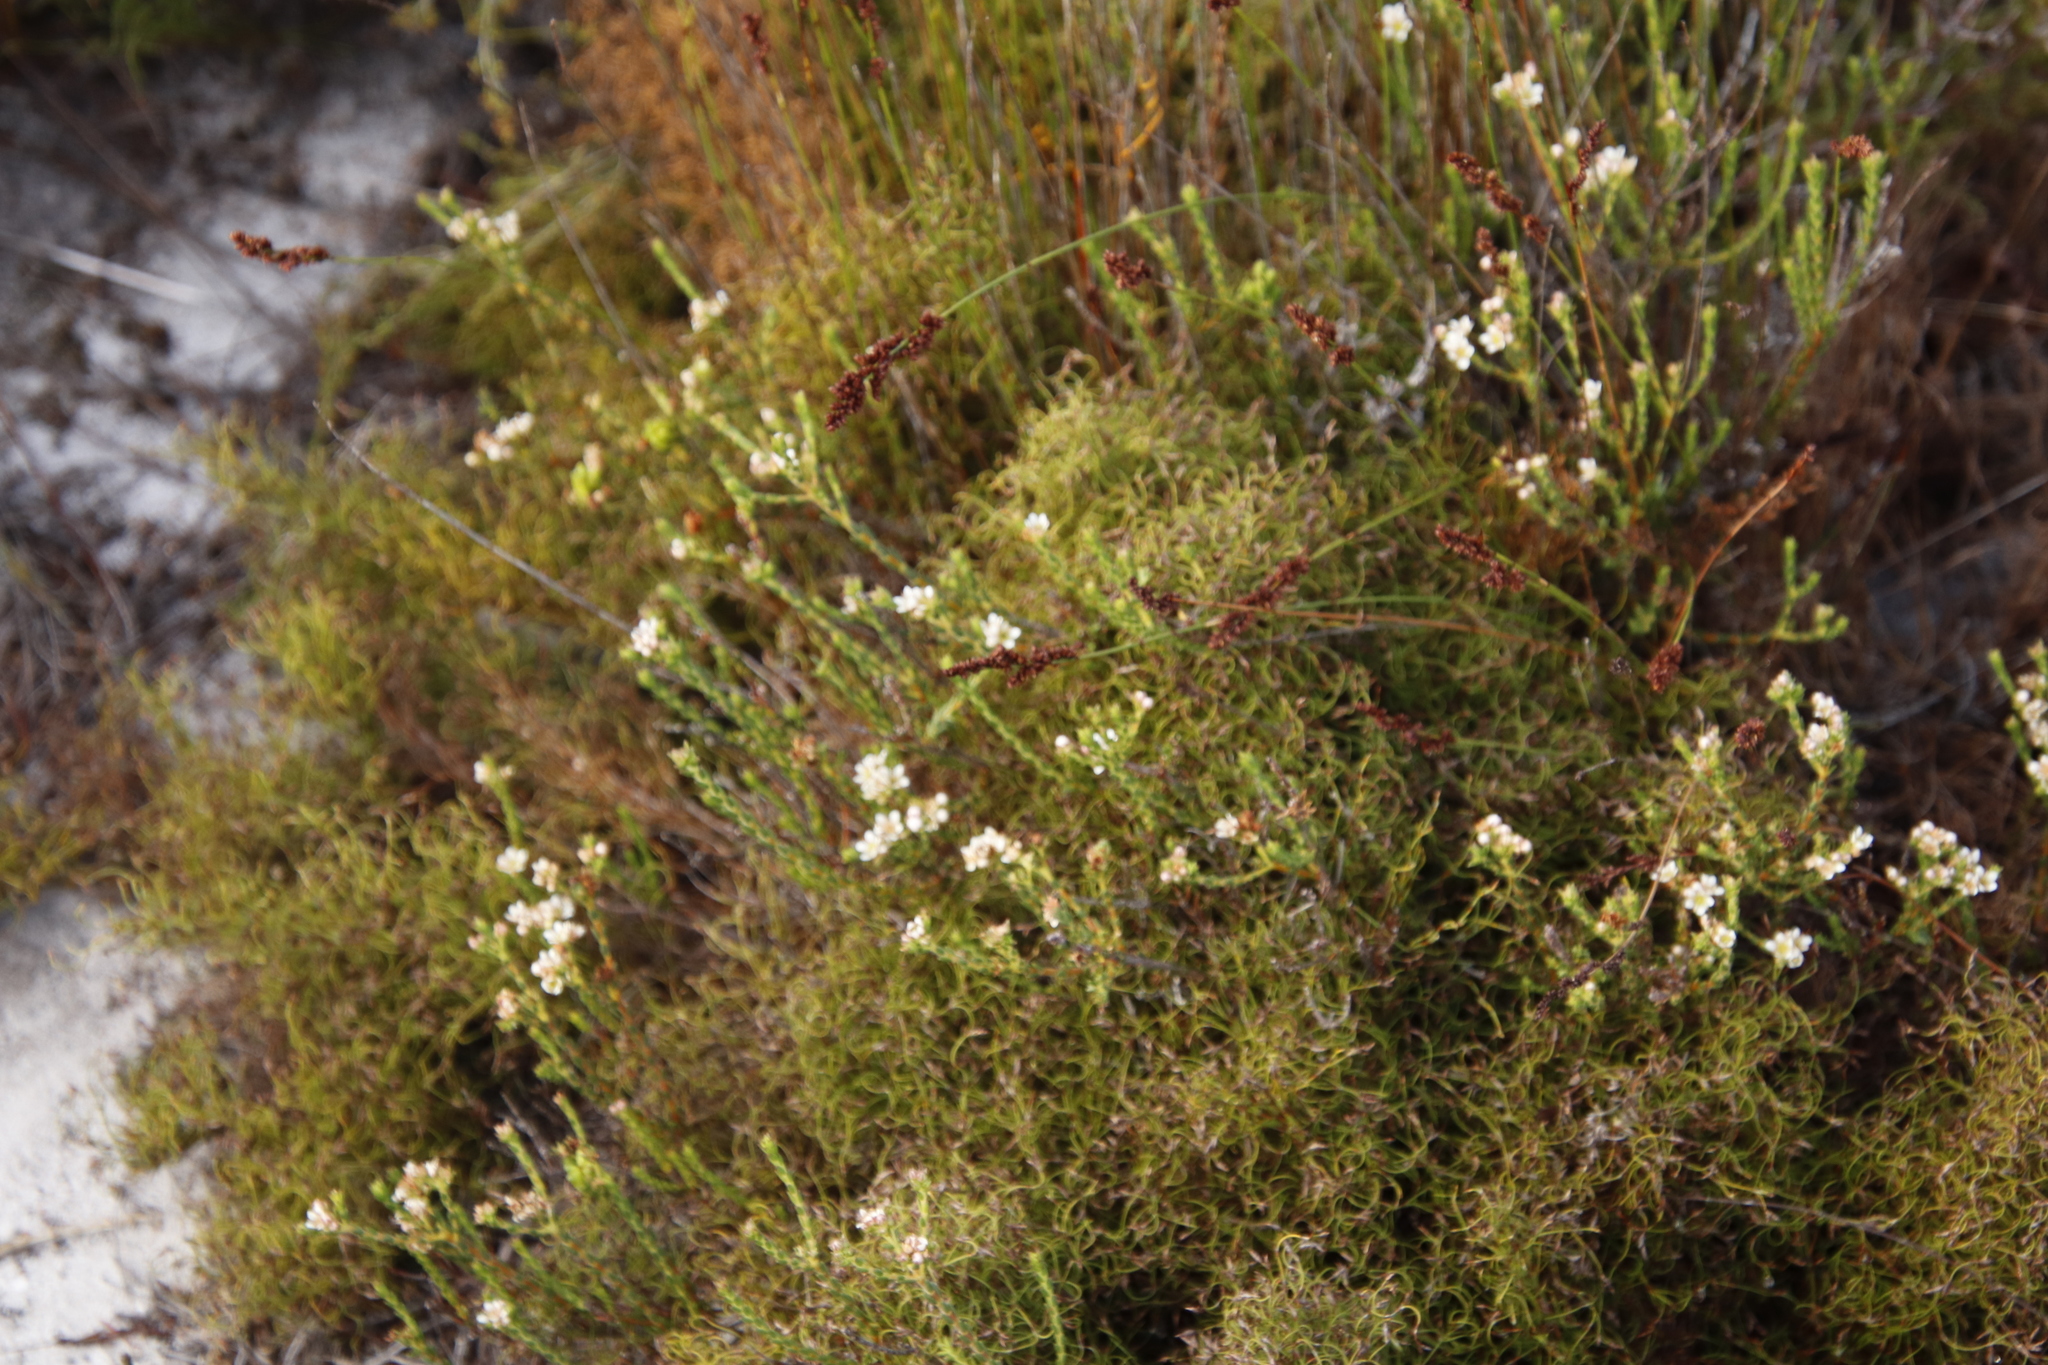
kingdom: Plantae
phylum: Tracheophyta
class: Magnoliopsida
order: Sapindales
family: Rutaceae
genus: Diosma
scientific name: Diosma oppositifolia
